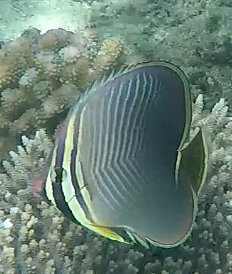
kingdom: Animalia
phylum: Chordata
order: Perciformes
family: Chaetodontidae
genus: Chaetodon
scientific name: Chaetodon baronessa
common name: Triangular butterflyfish
